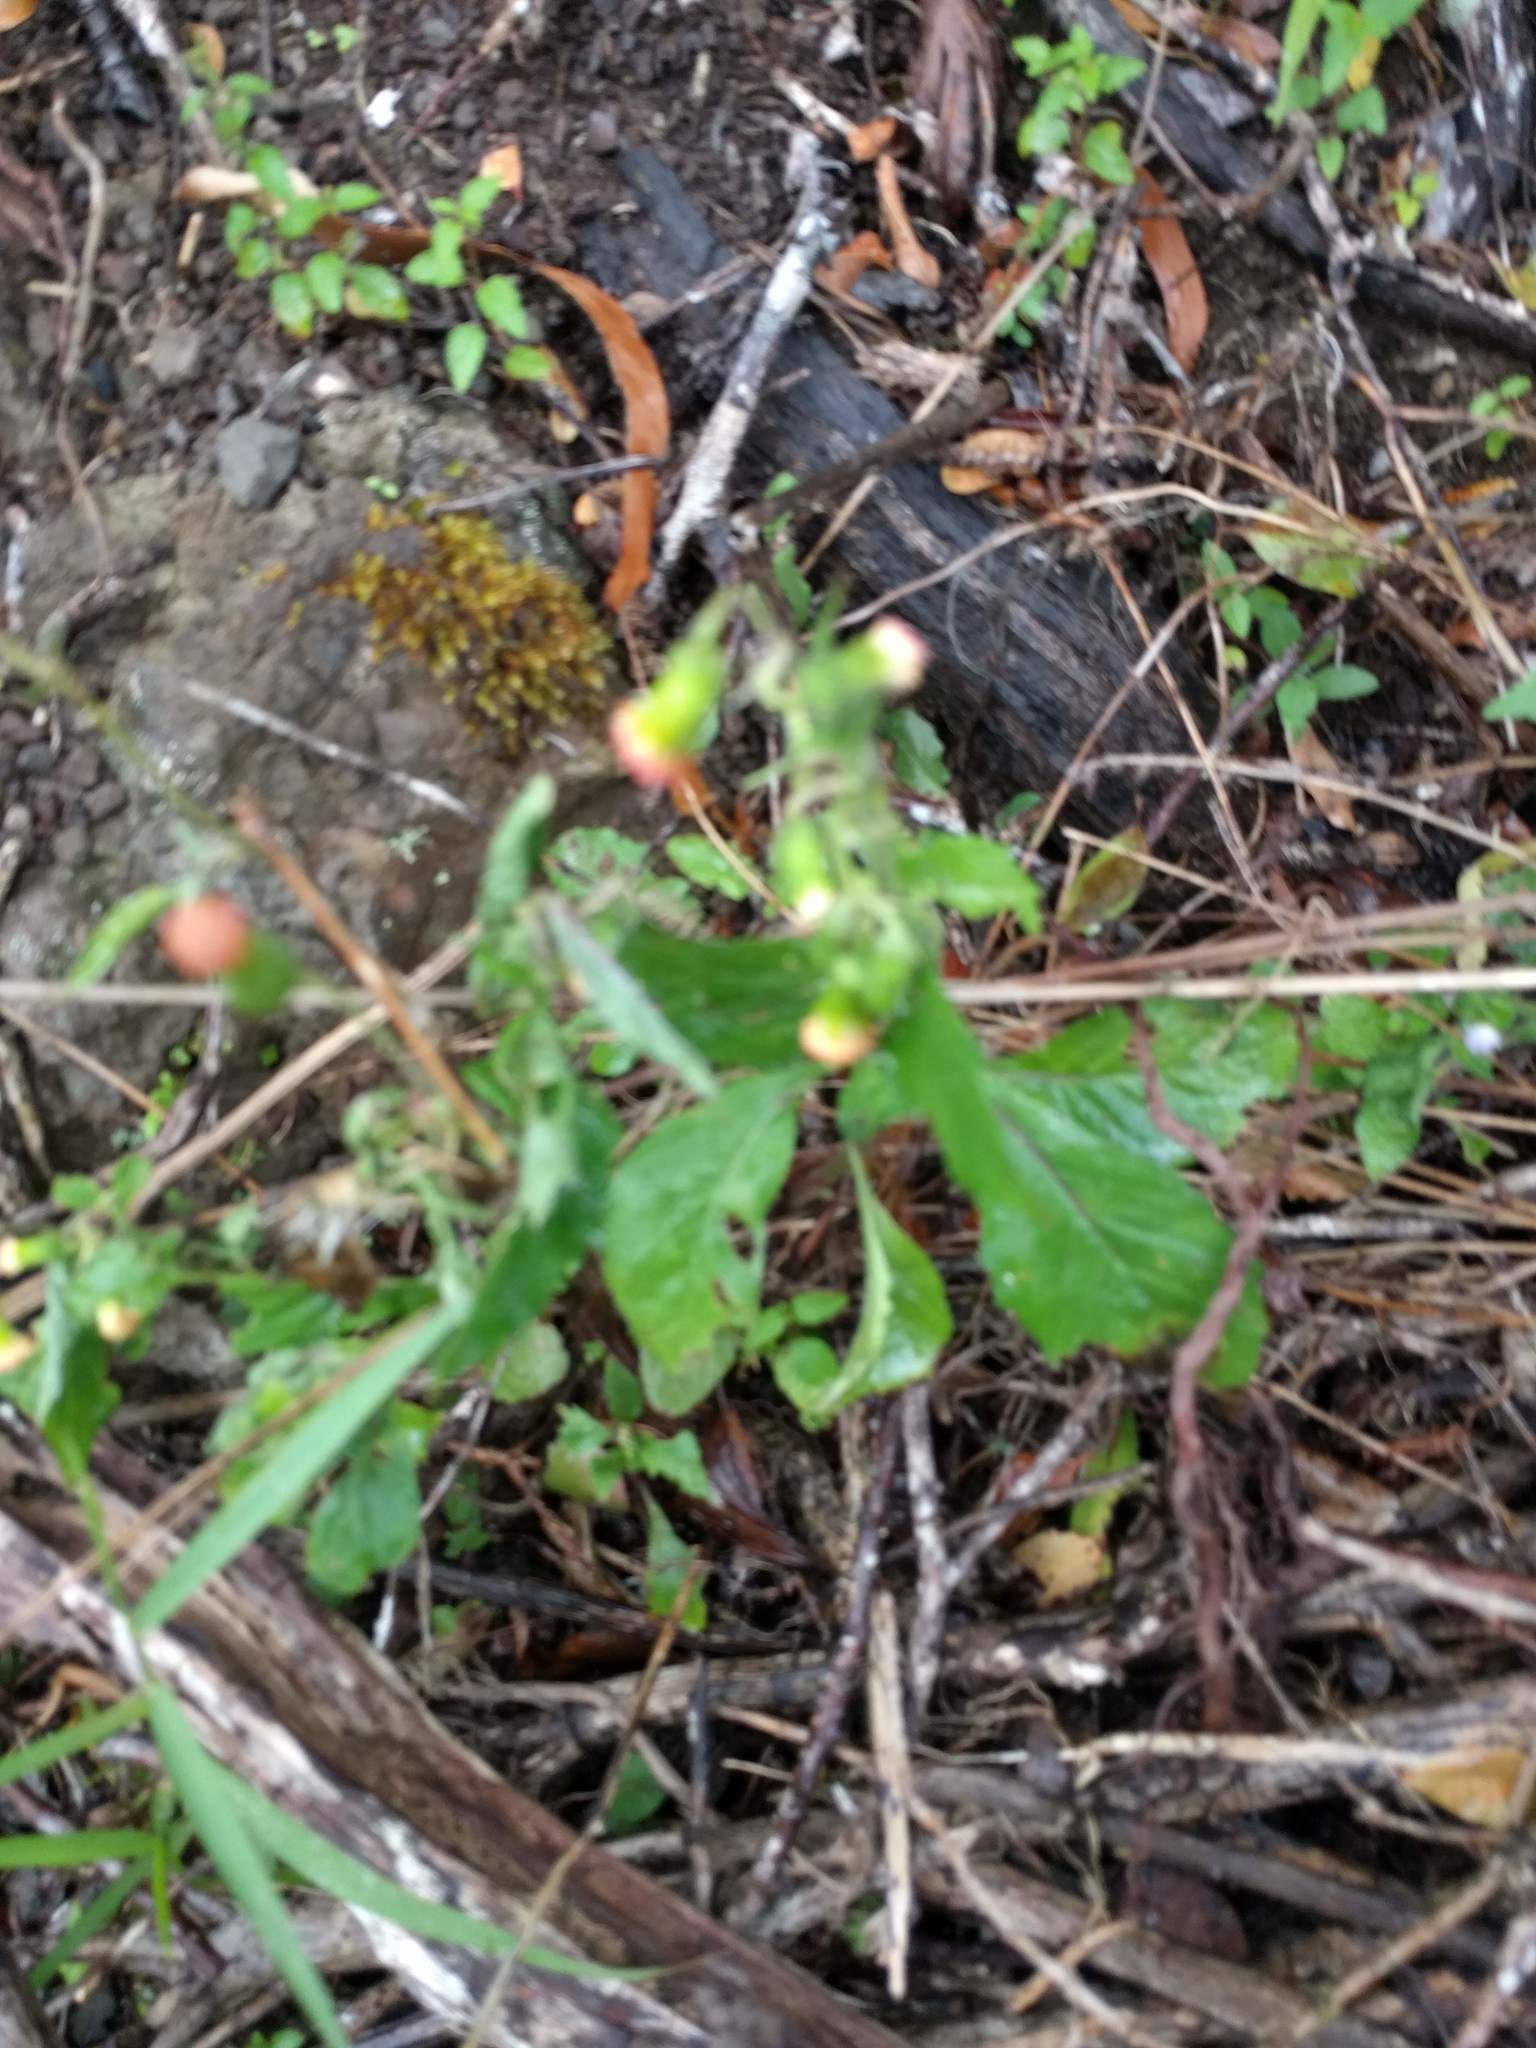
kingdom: Plantae
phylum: Tracheophyta
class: Magnoliopsida
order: Asterales
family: Asteraceae
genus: Crassocephalum
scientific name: Crassocephalum crepidioides
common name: Redflower ragleaf
